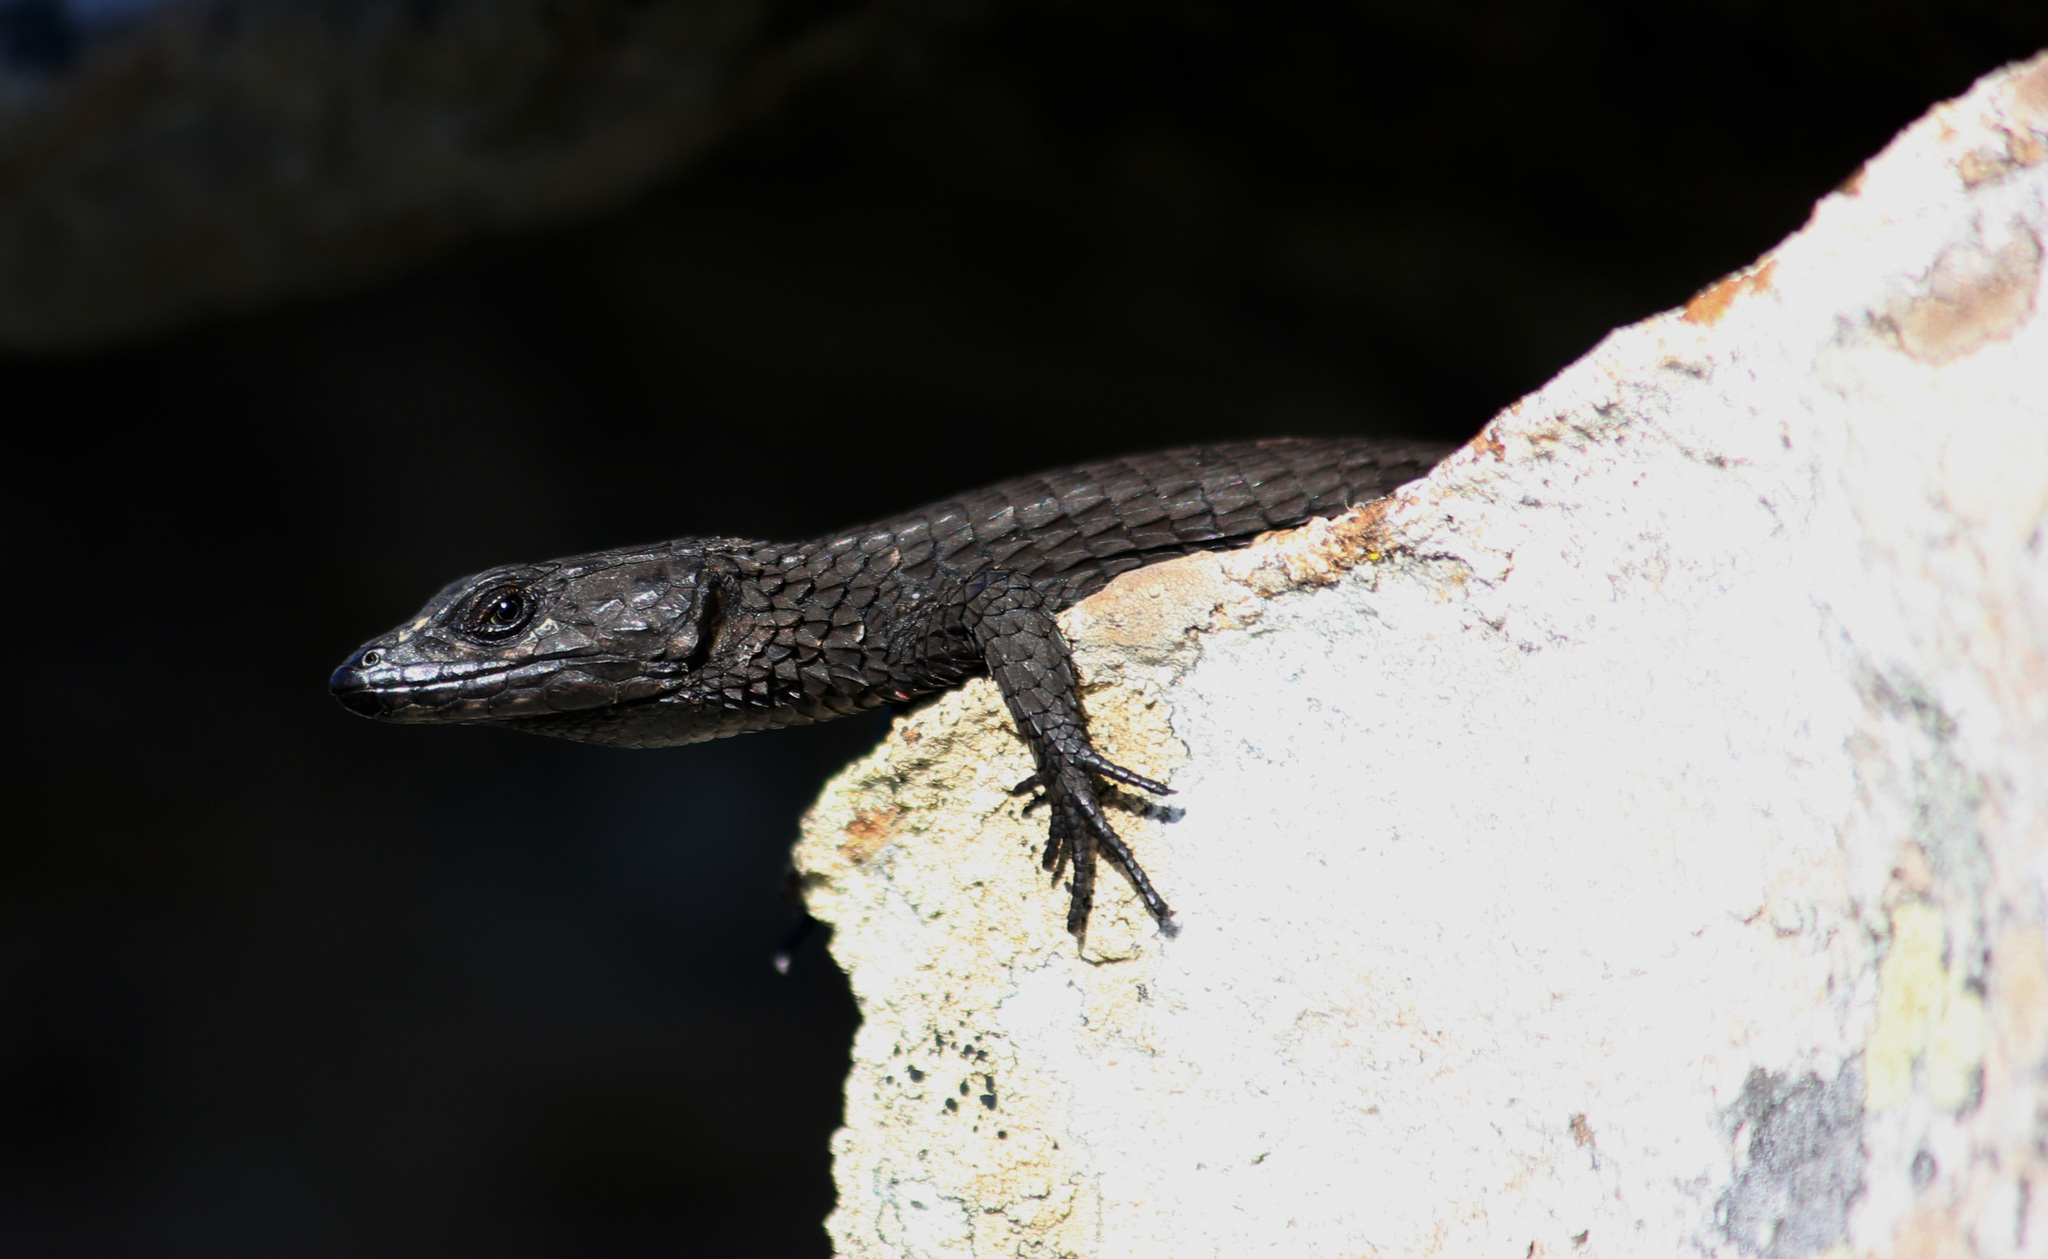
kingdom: Animalia
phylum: Chordata
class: Squamata
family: Cordylidae
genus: Cordylus
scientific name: Cordylus niger
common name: Black girdled lizard
